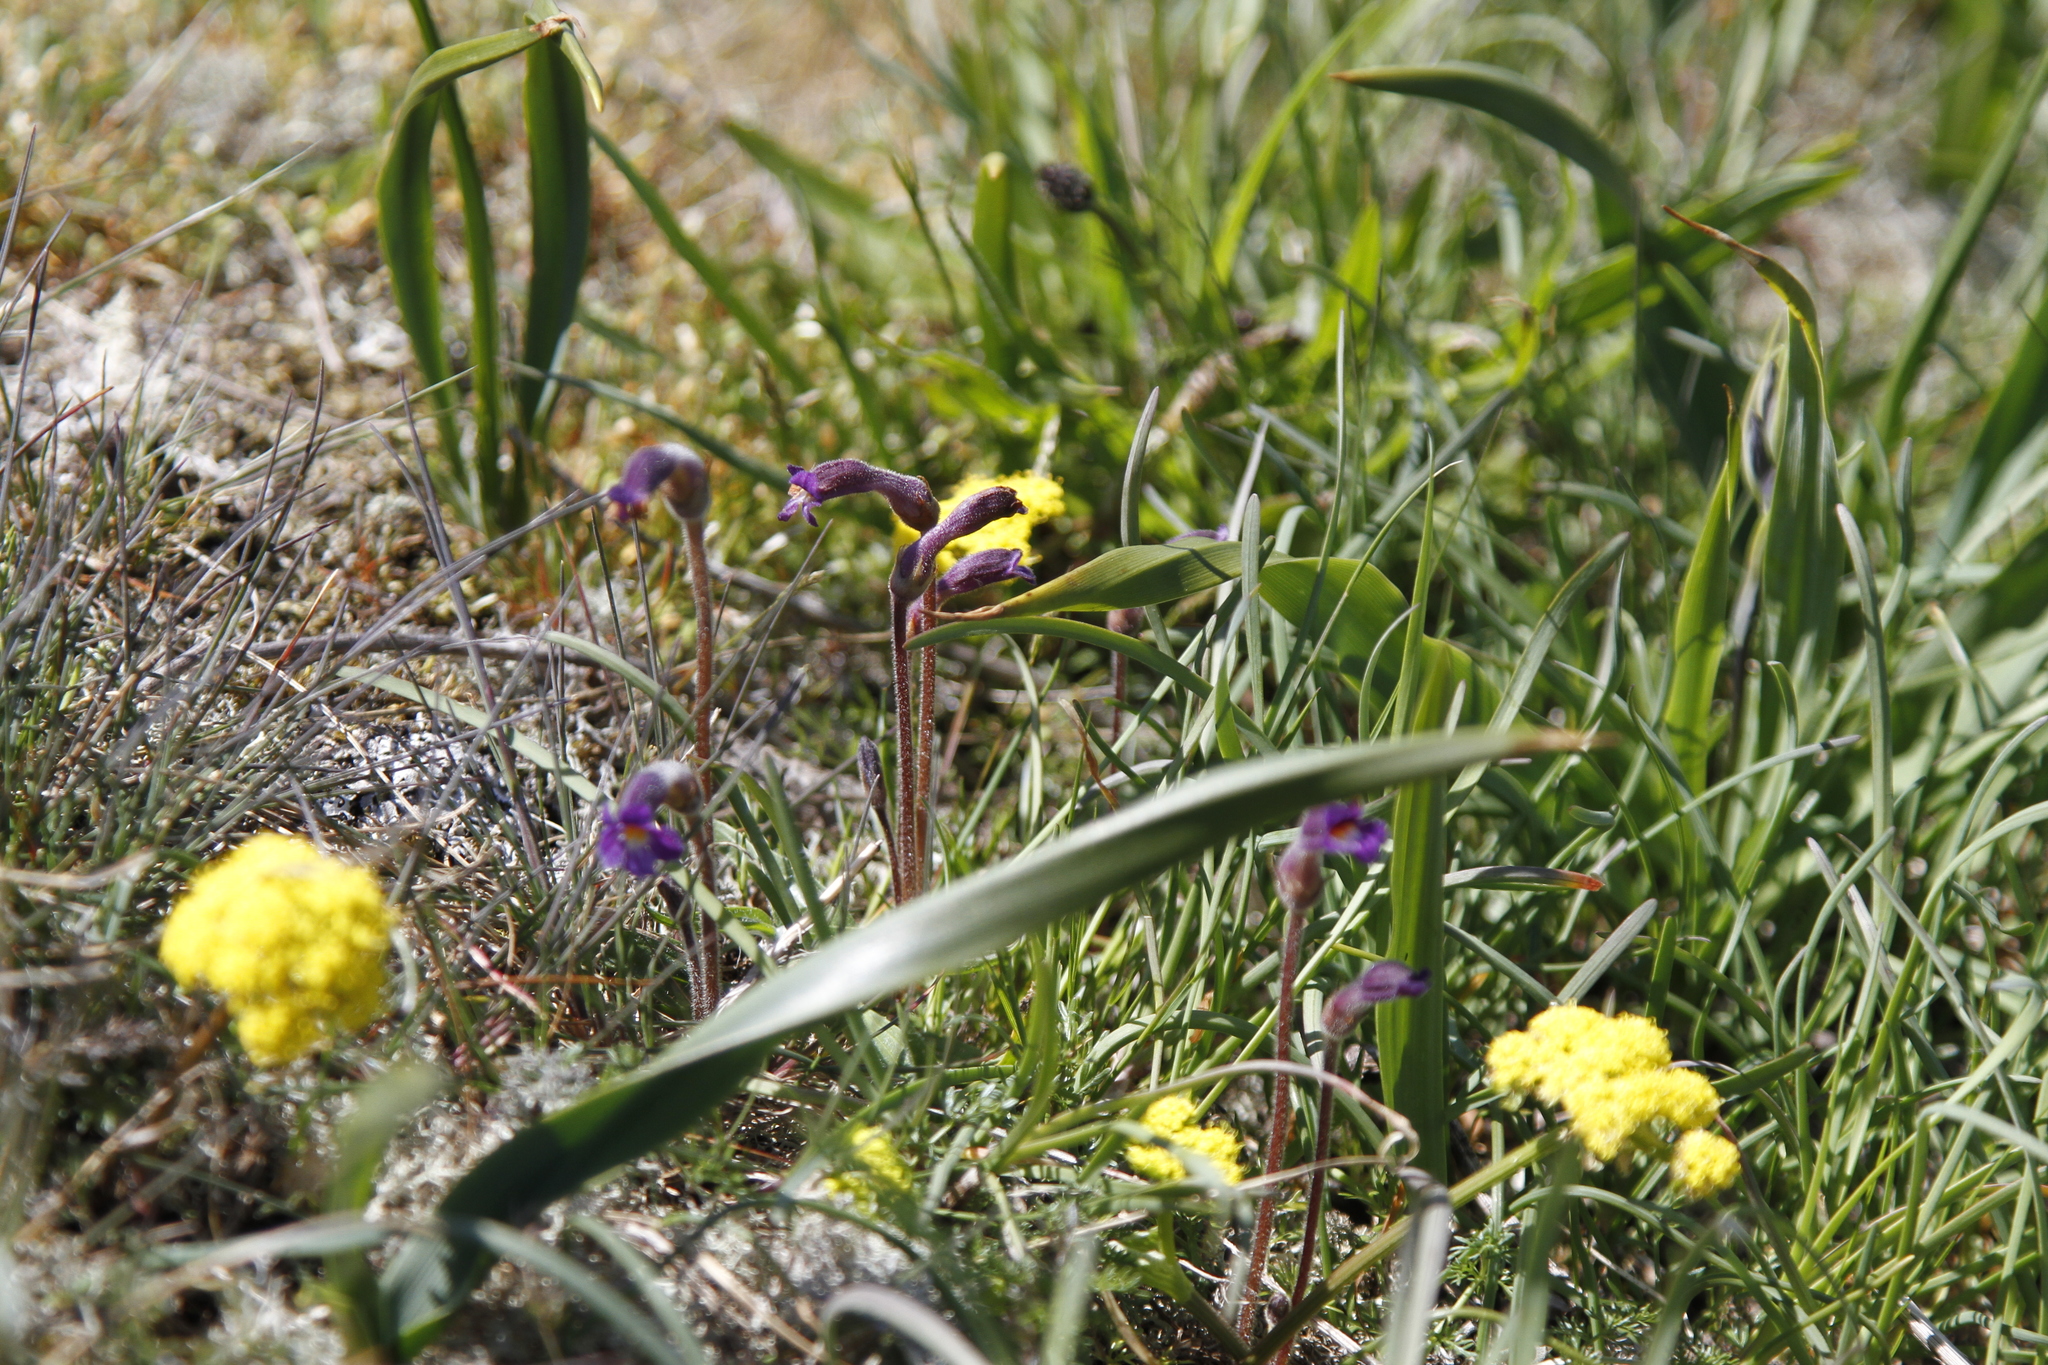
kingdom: Plantae
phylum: Tracheophyta
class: Magnoliopsida
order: Lamiales
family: Orobanchaceae
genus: Aphyllon
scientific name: Aphyllon uniflorum
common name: One-flowered broomrape
